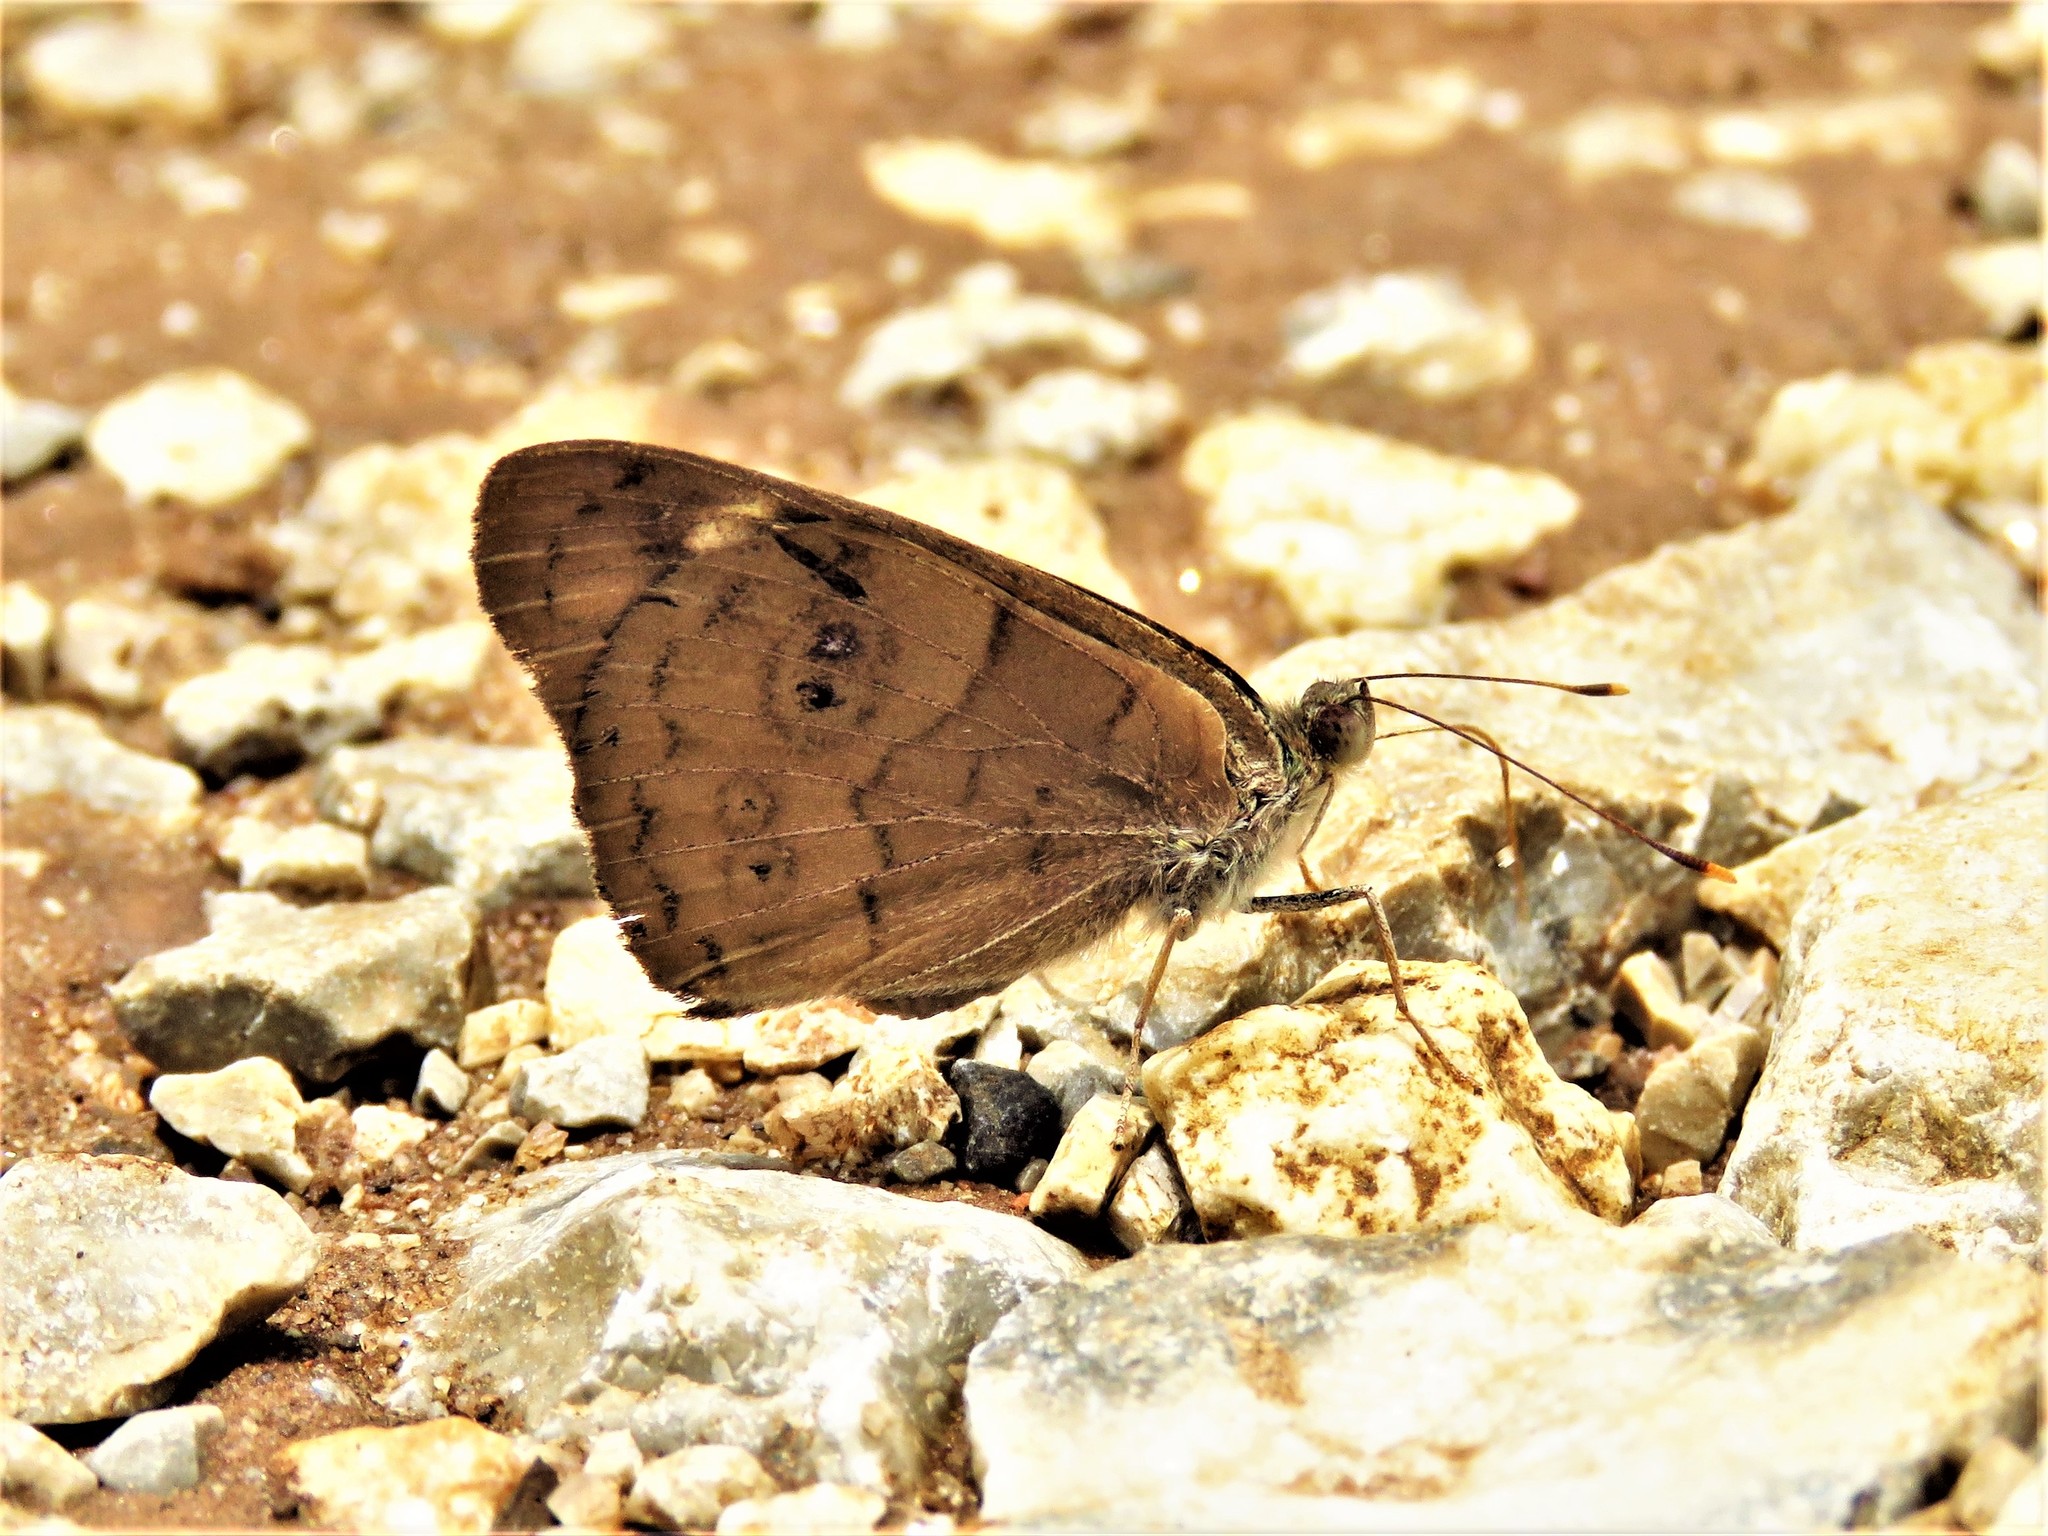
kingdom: Animalia
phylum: Arthropoda
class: Insecta
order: Lepidoptera
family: Nymphalidae
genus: Eunica
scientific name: Eunica monima
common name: Dingy purplewing
